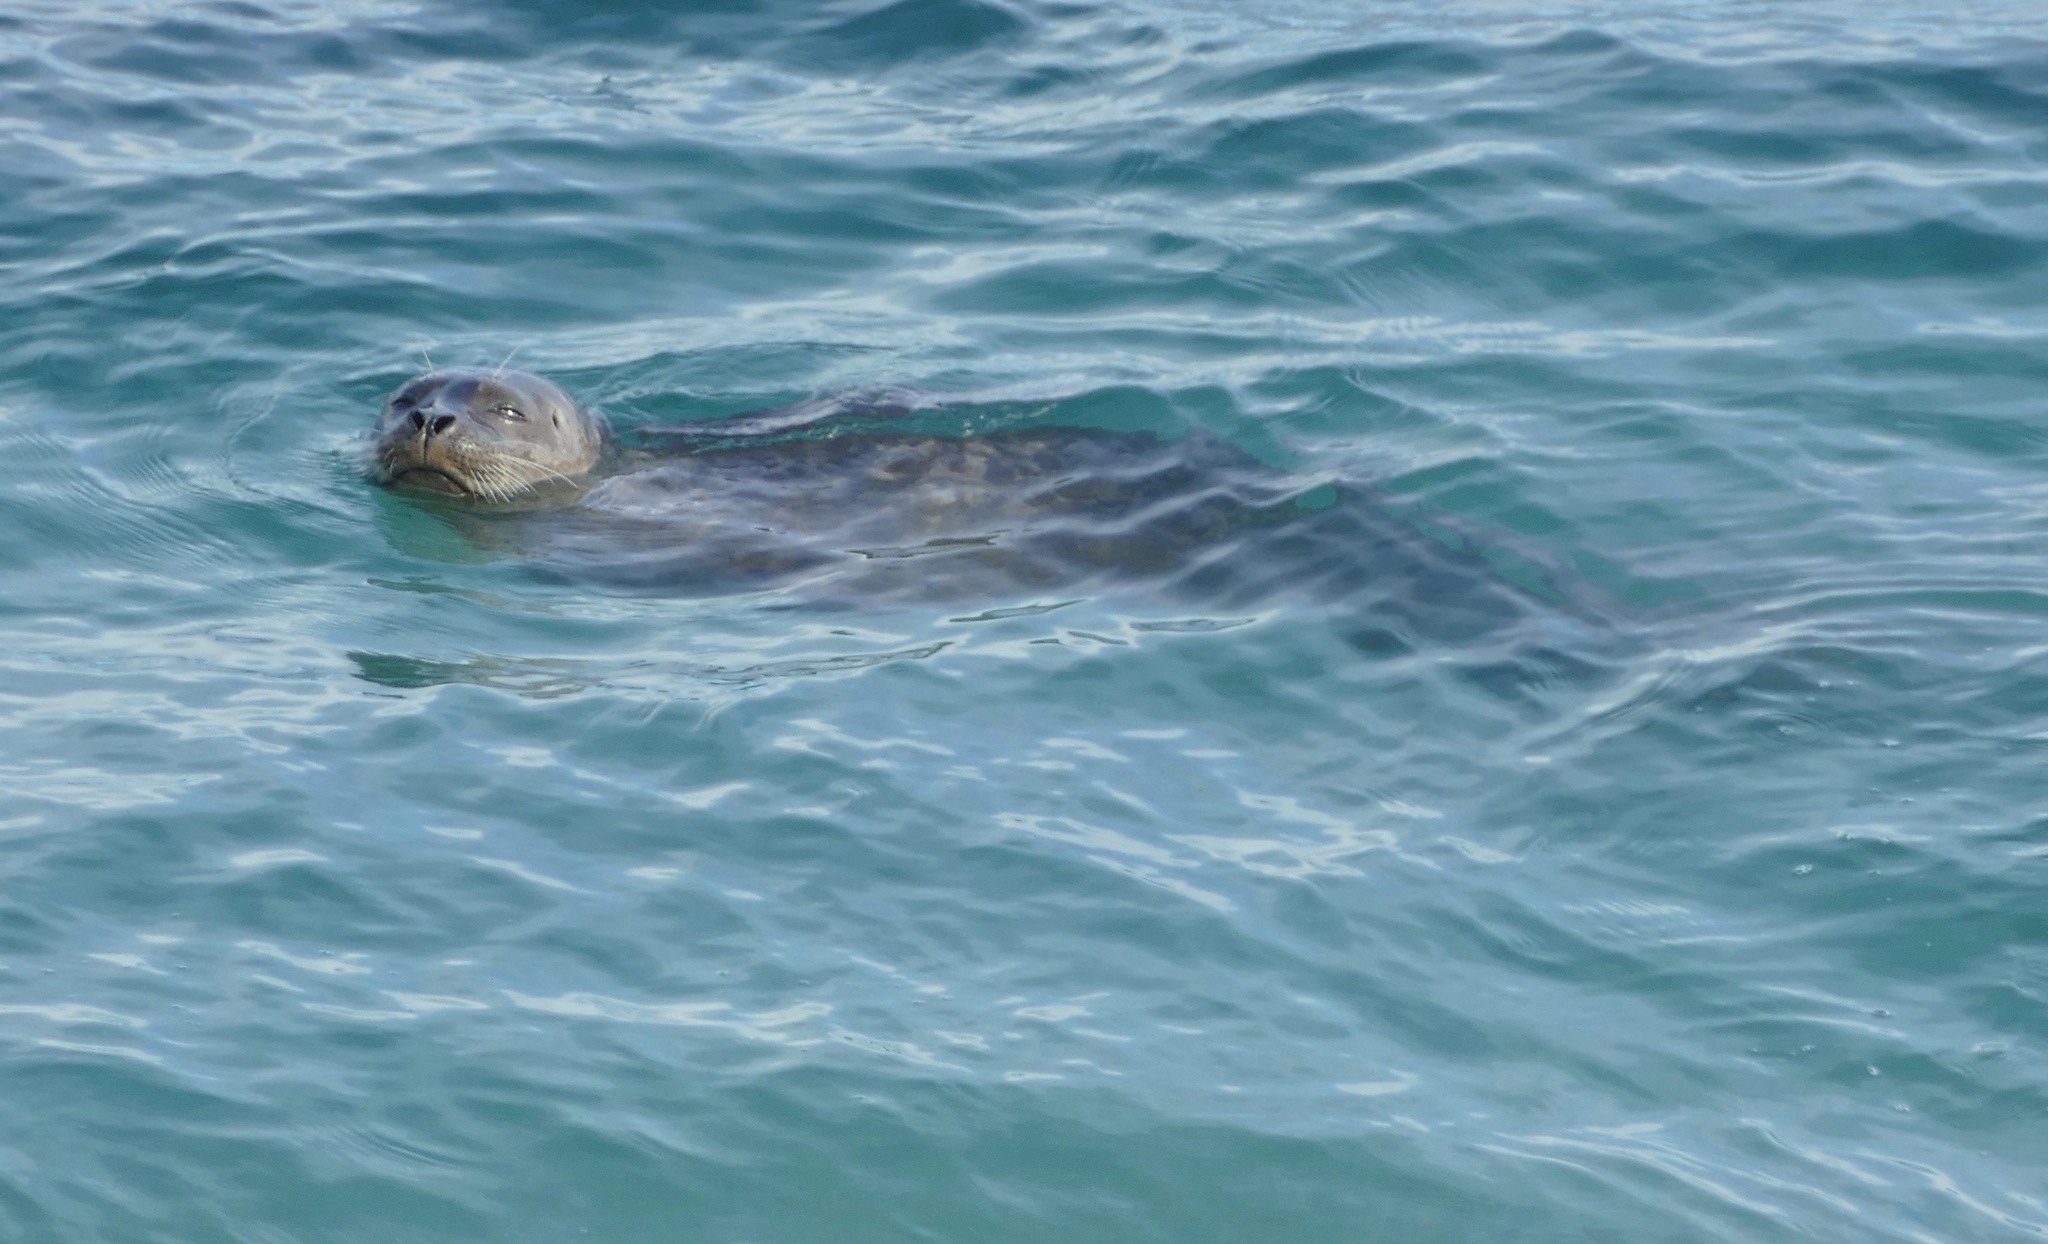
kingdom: Animalia
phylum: Chordata
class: Mammalia
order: Carnivora
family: Phocidae
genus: Phoca
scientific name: Phoca vitulina
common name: Harbor seal
